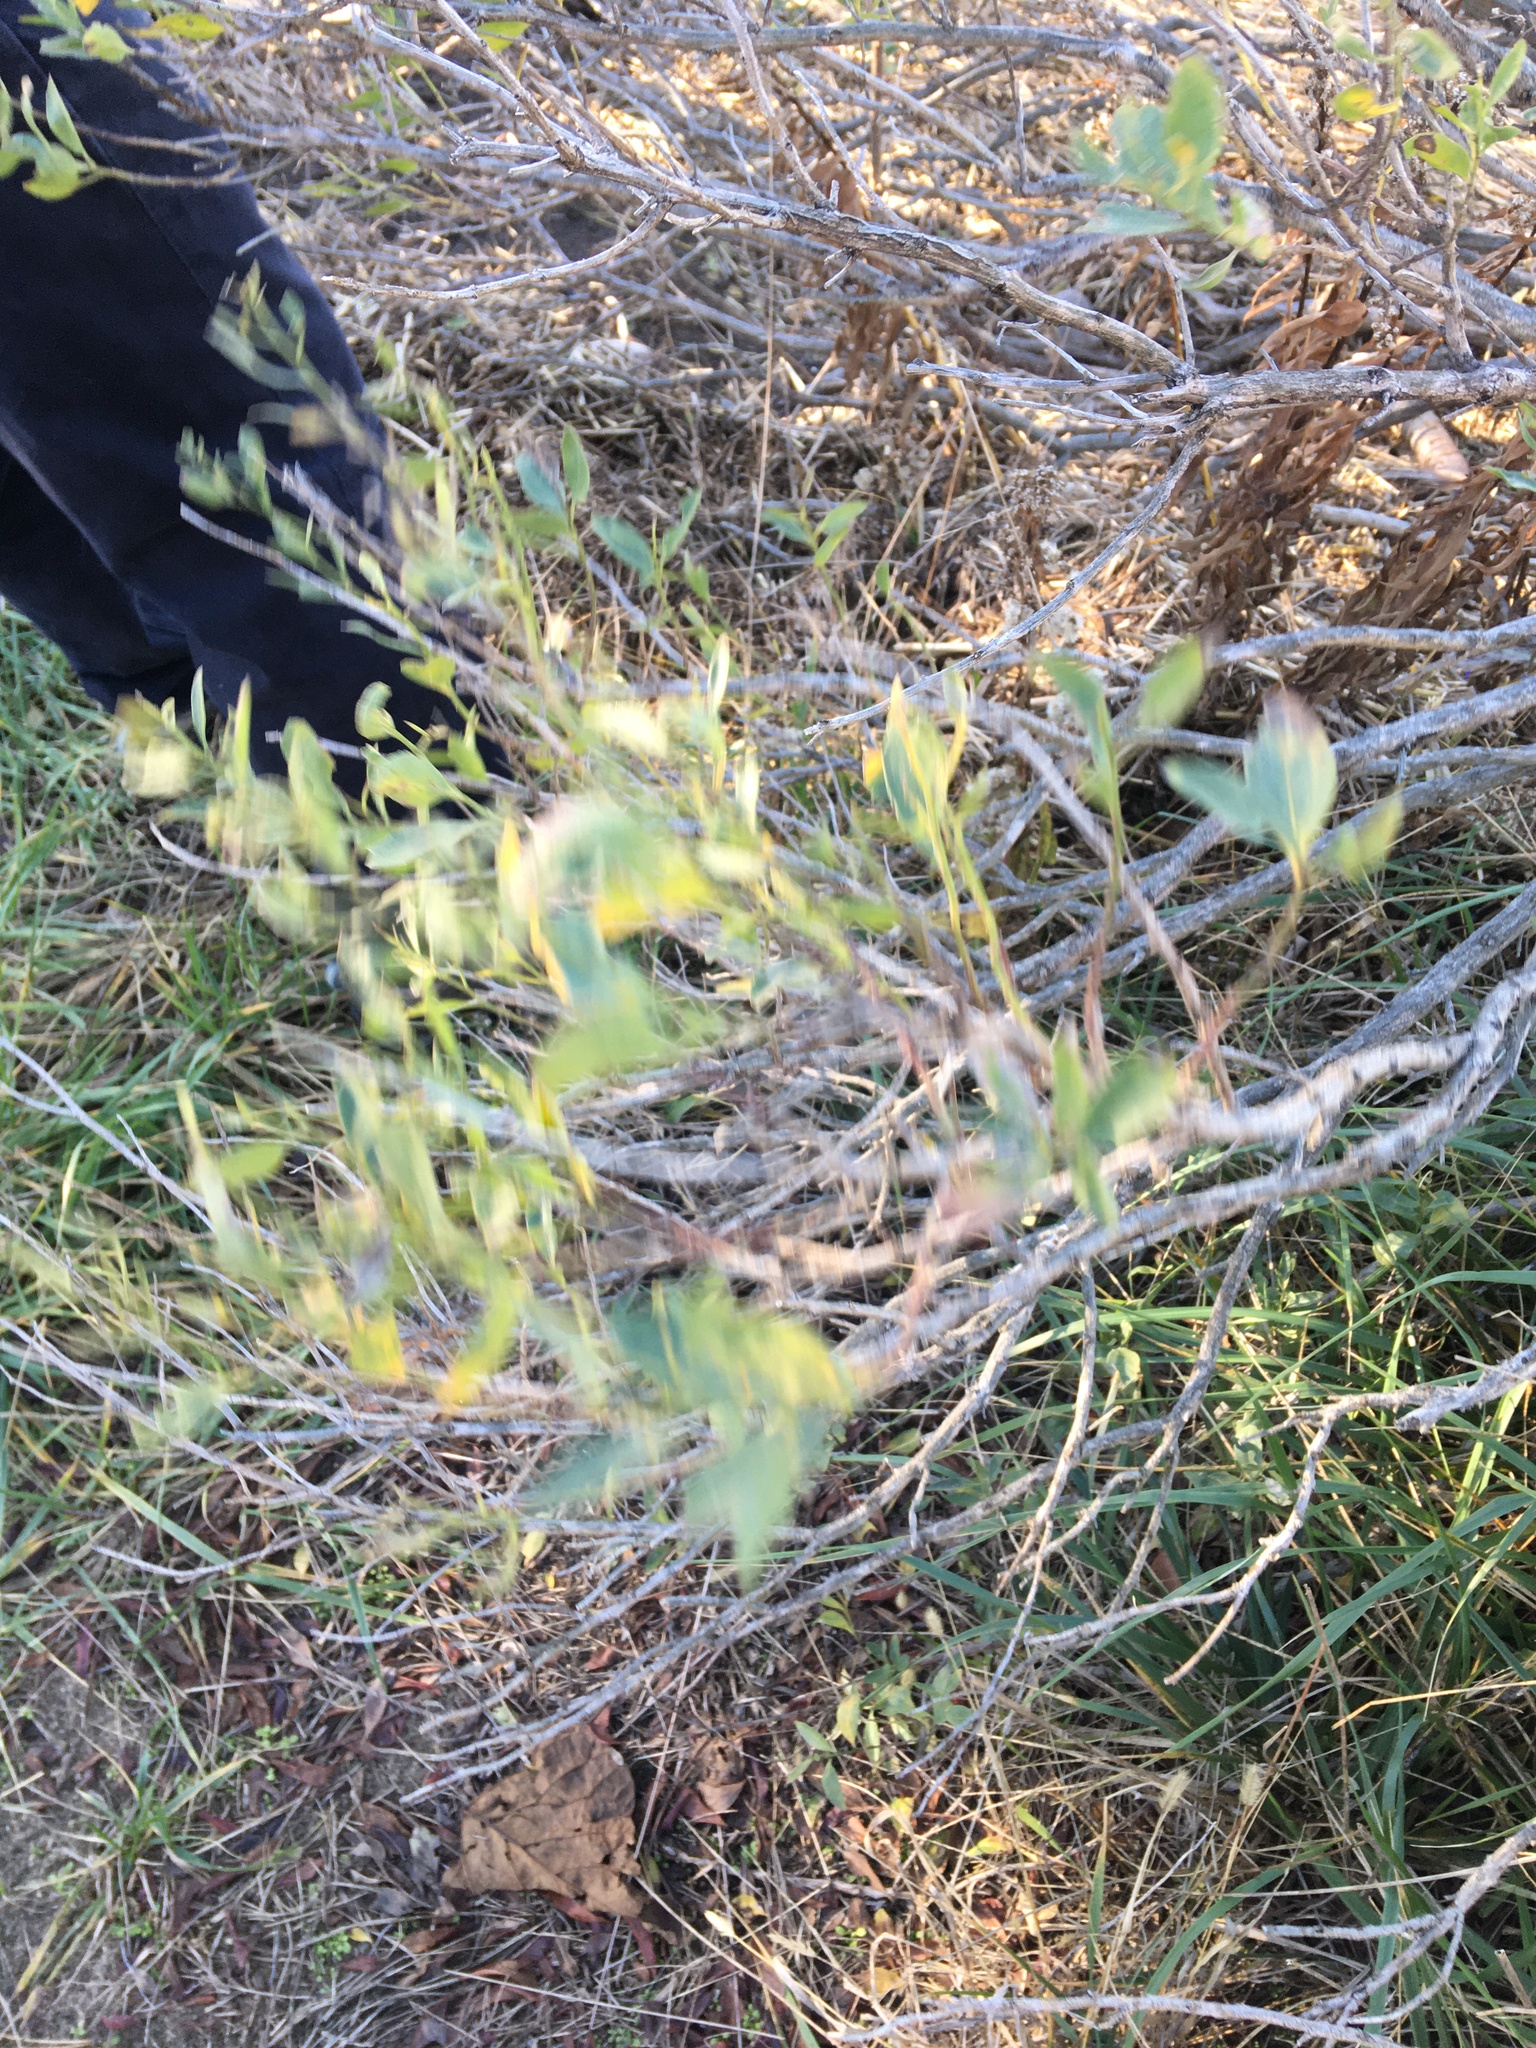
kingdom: Plantae
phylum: Tracheophyta
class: Magnoliopsida
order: Asterales
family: Asteraceae
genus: Baccharis
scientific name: Baccharis halimifolia
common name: Eastern baccharis
